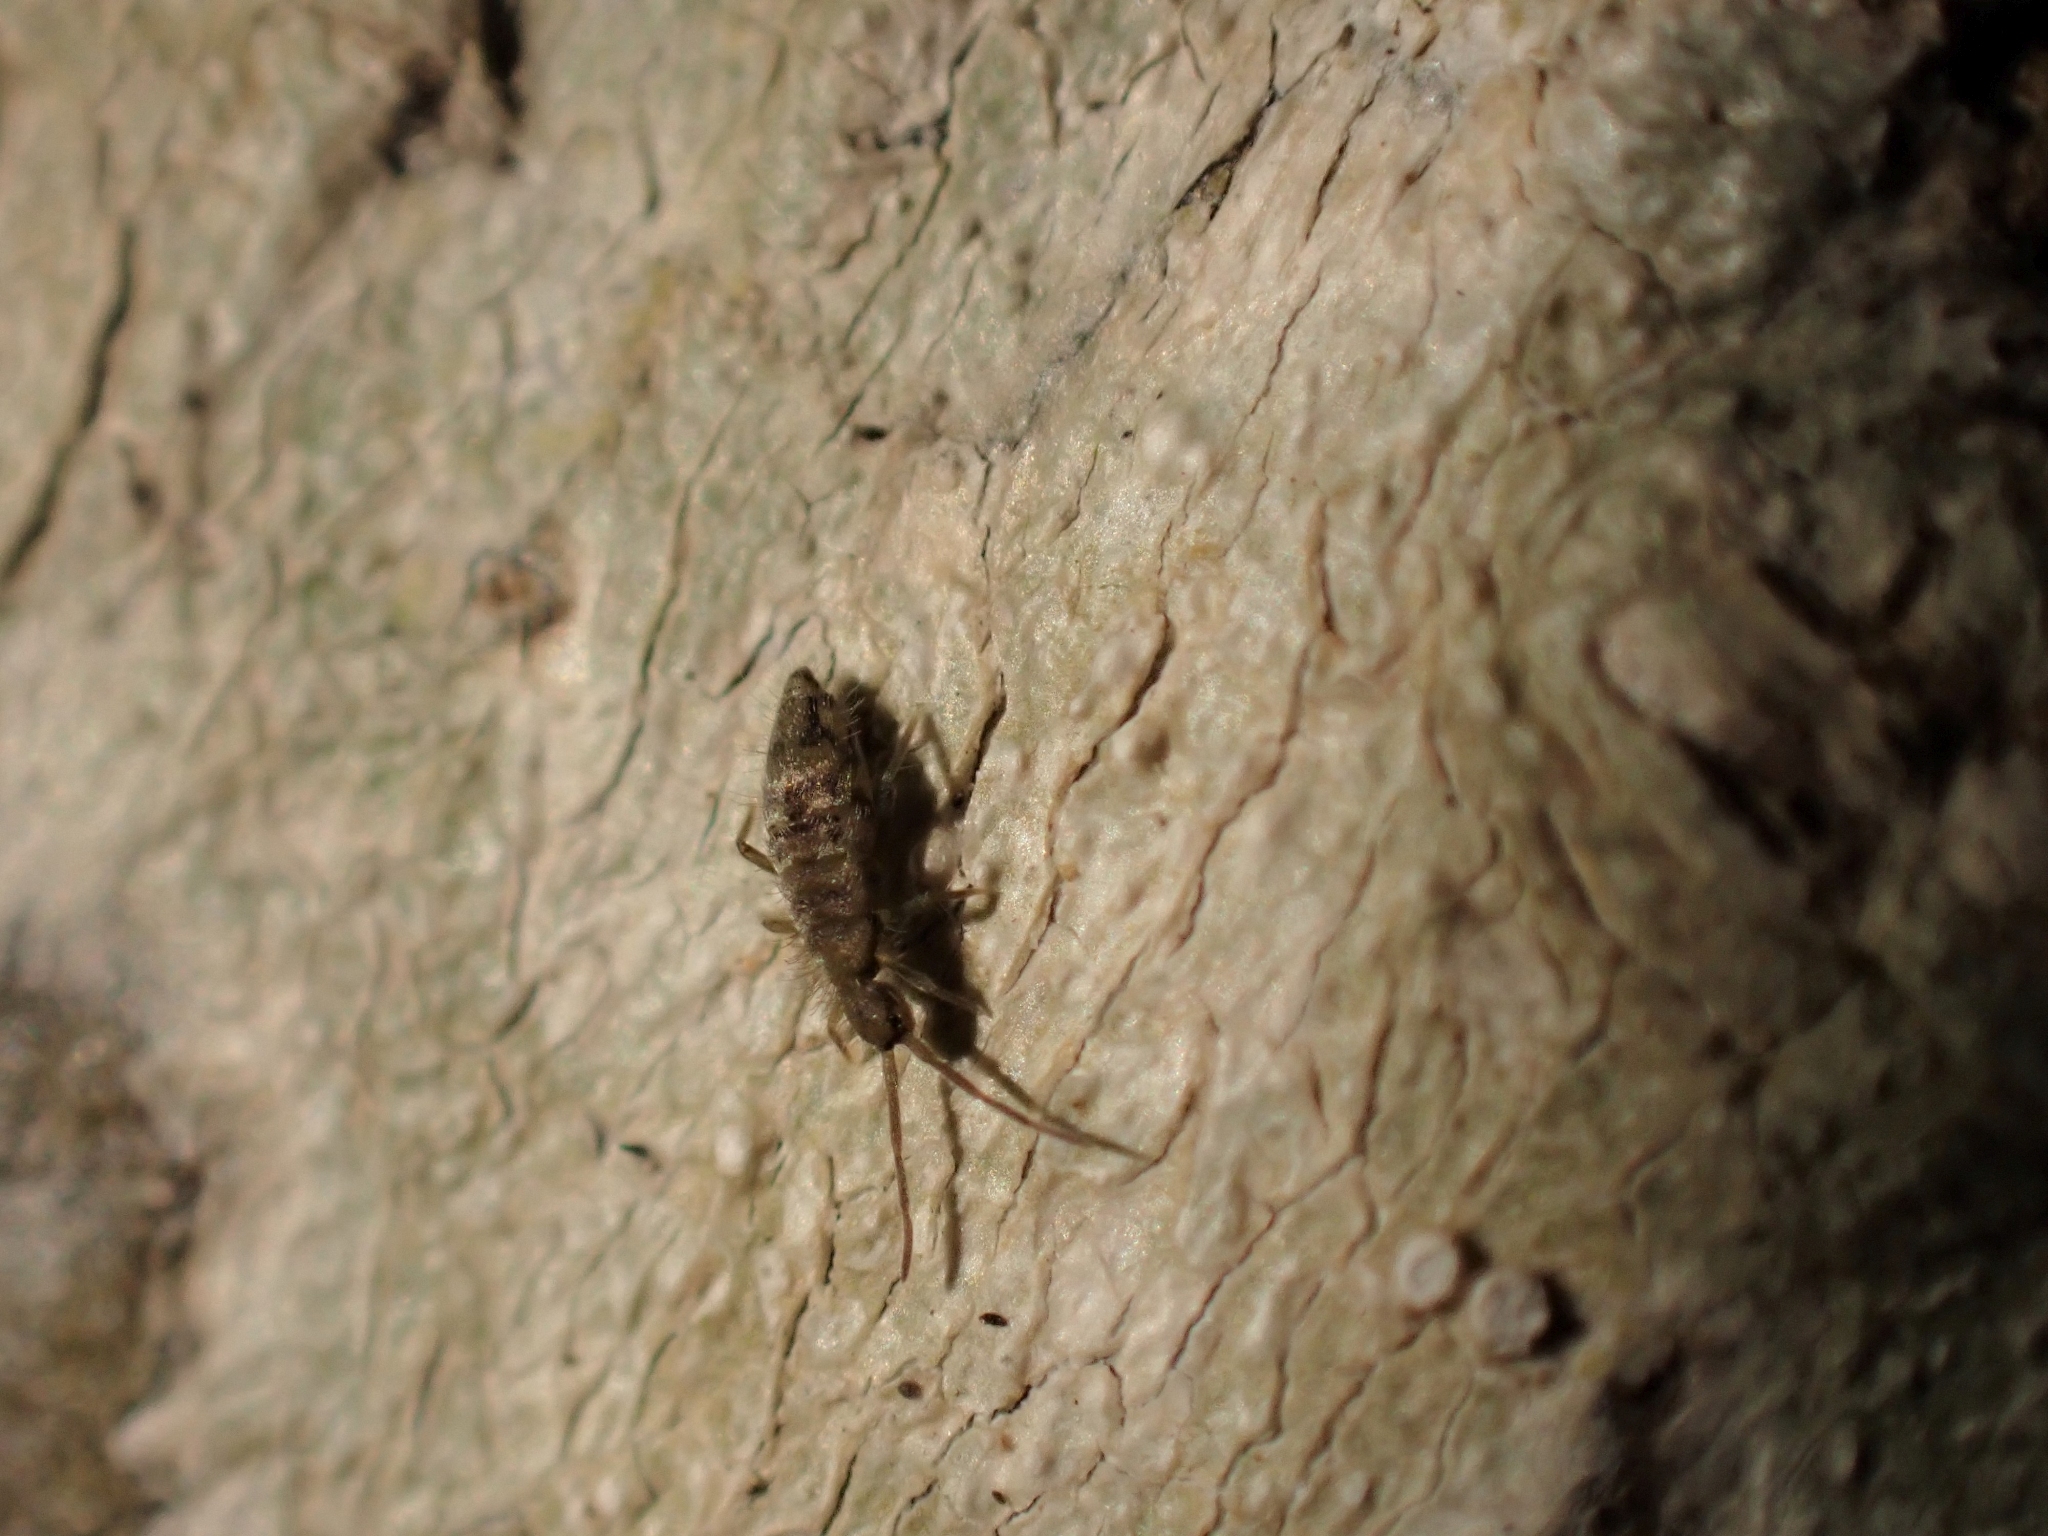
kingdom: Animalia
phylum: Arthropoda
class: Collembola
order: Entomobryomorpha
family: Entomobryidae
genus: Entomobrya
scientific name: Entomobrya nivalis
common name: Cosmopolitan springtail
